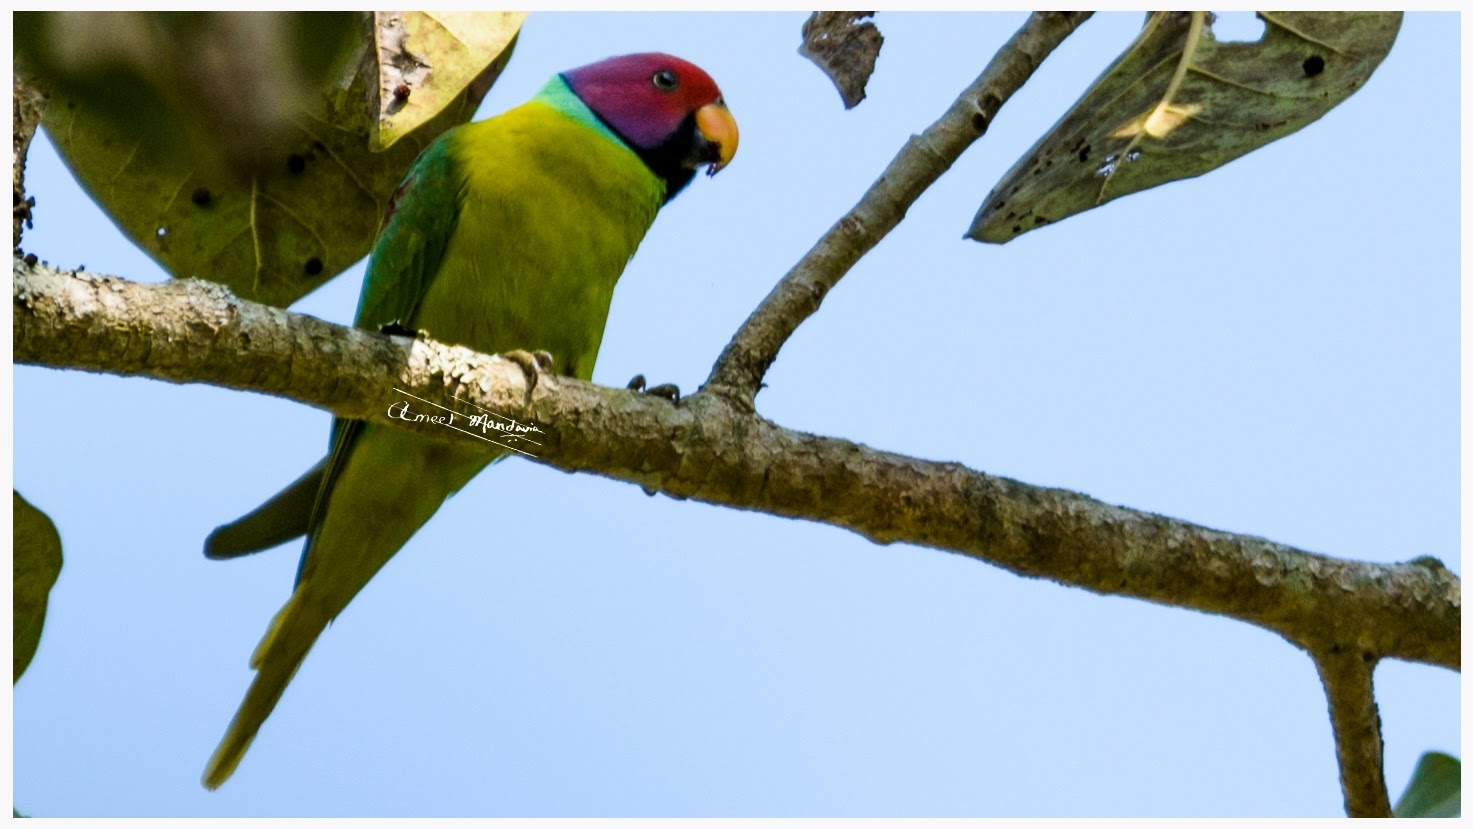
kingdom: Animalia
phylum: Chordata
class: Aves
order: Psittaciformes
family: Psittacidae
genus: Psittacula
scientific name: Psittacula cyanocephala
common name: Plum-headed parakeet
